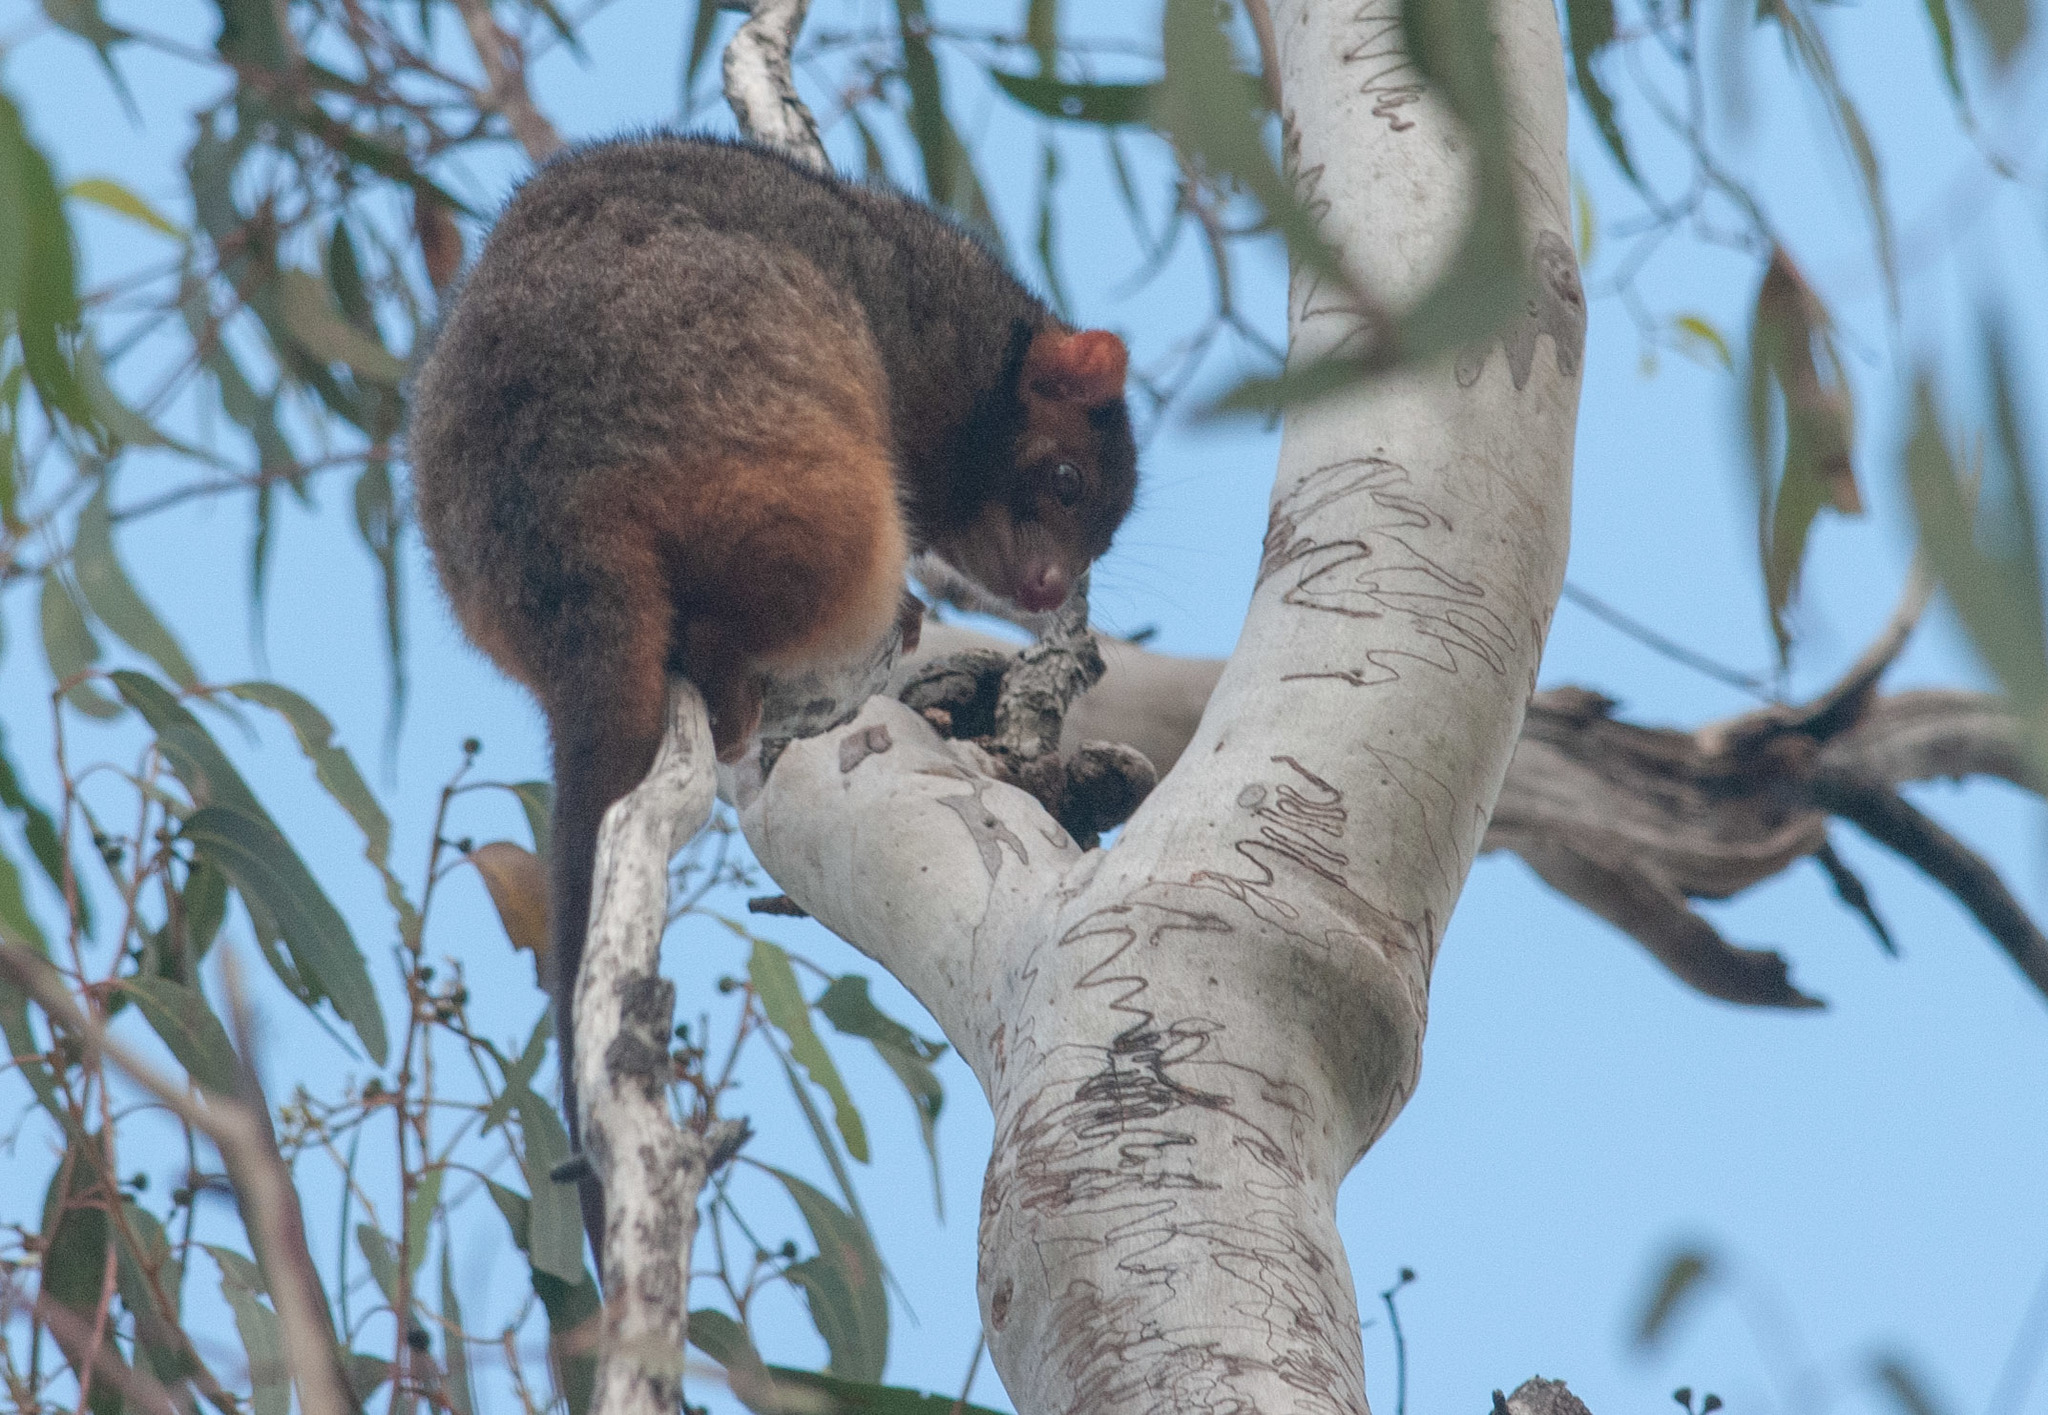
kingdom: Animalia
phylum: Chordata
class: Mammalia
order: Diprotodontia
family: Pseudocheiridae
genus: Pseudocheirus
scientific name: Pseudocheirus peregrinus
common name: Common ringtail possum
